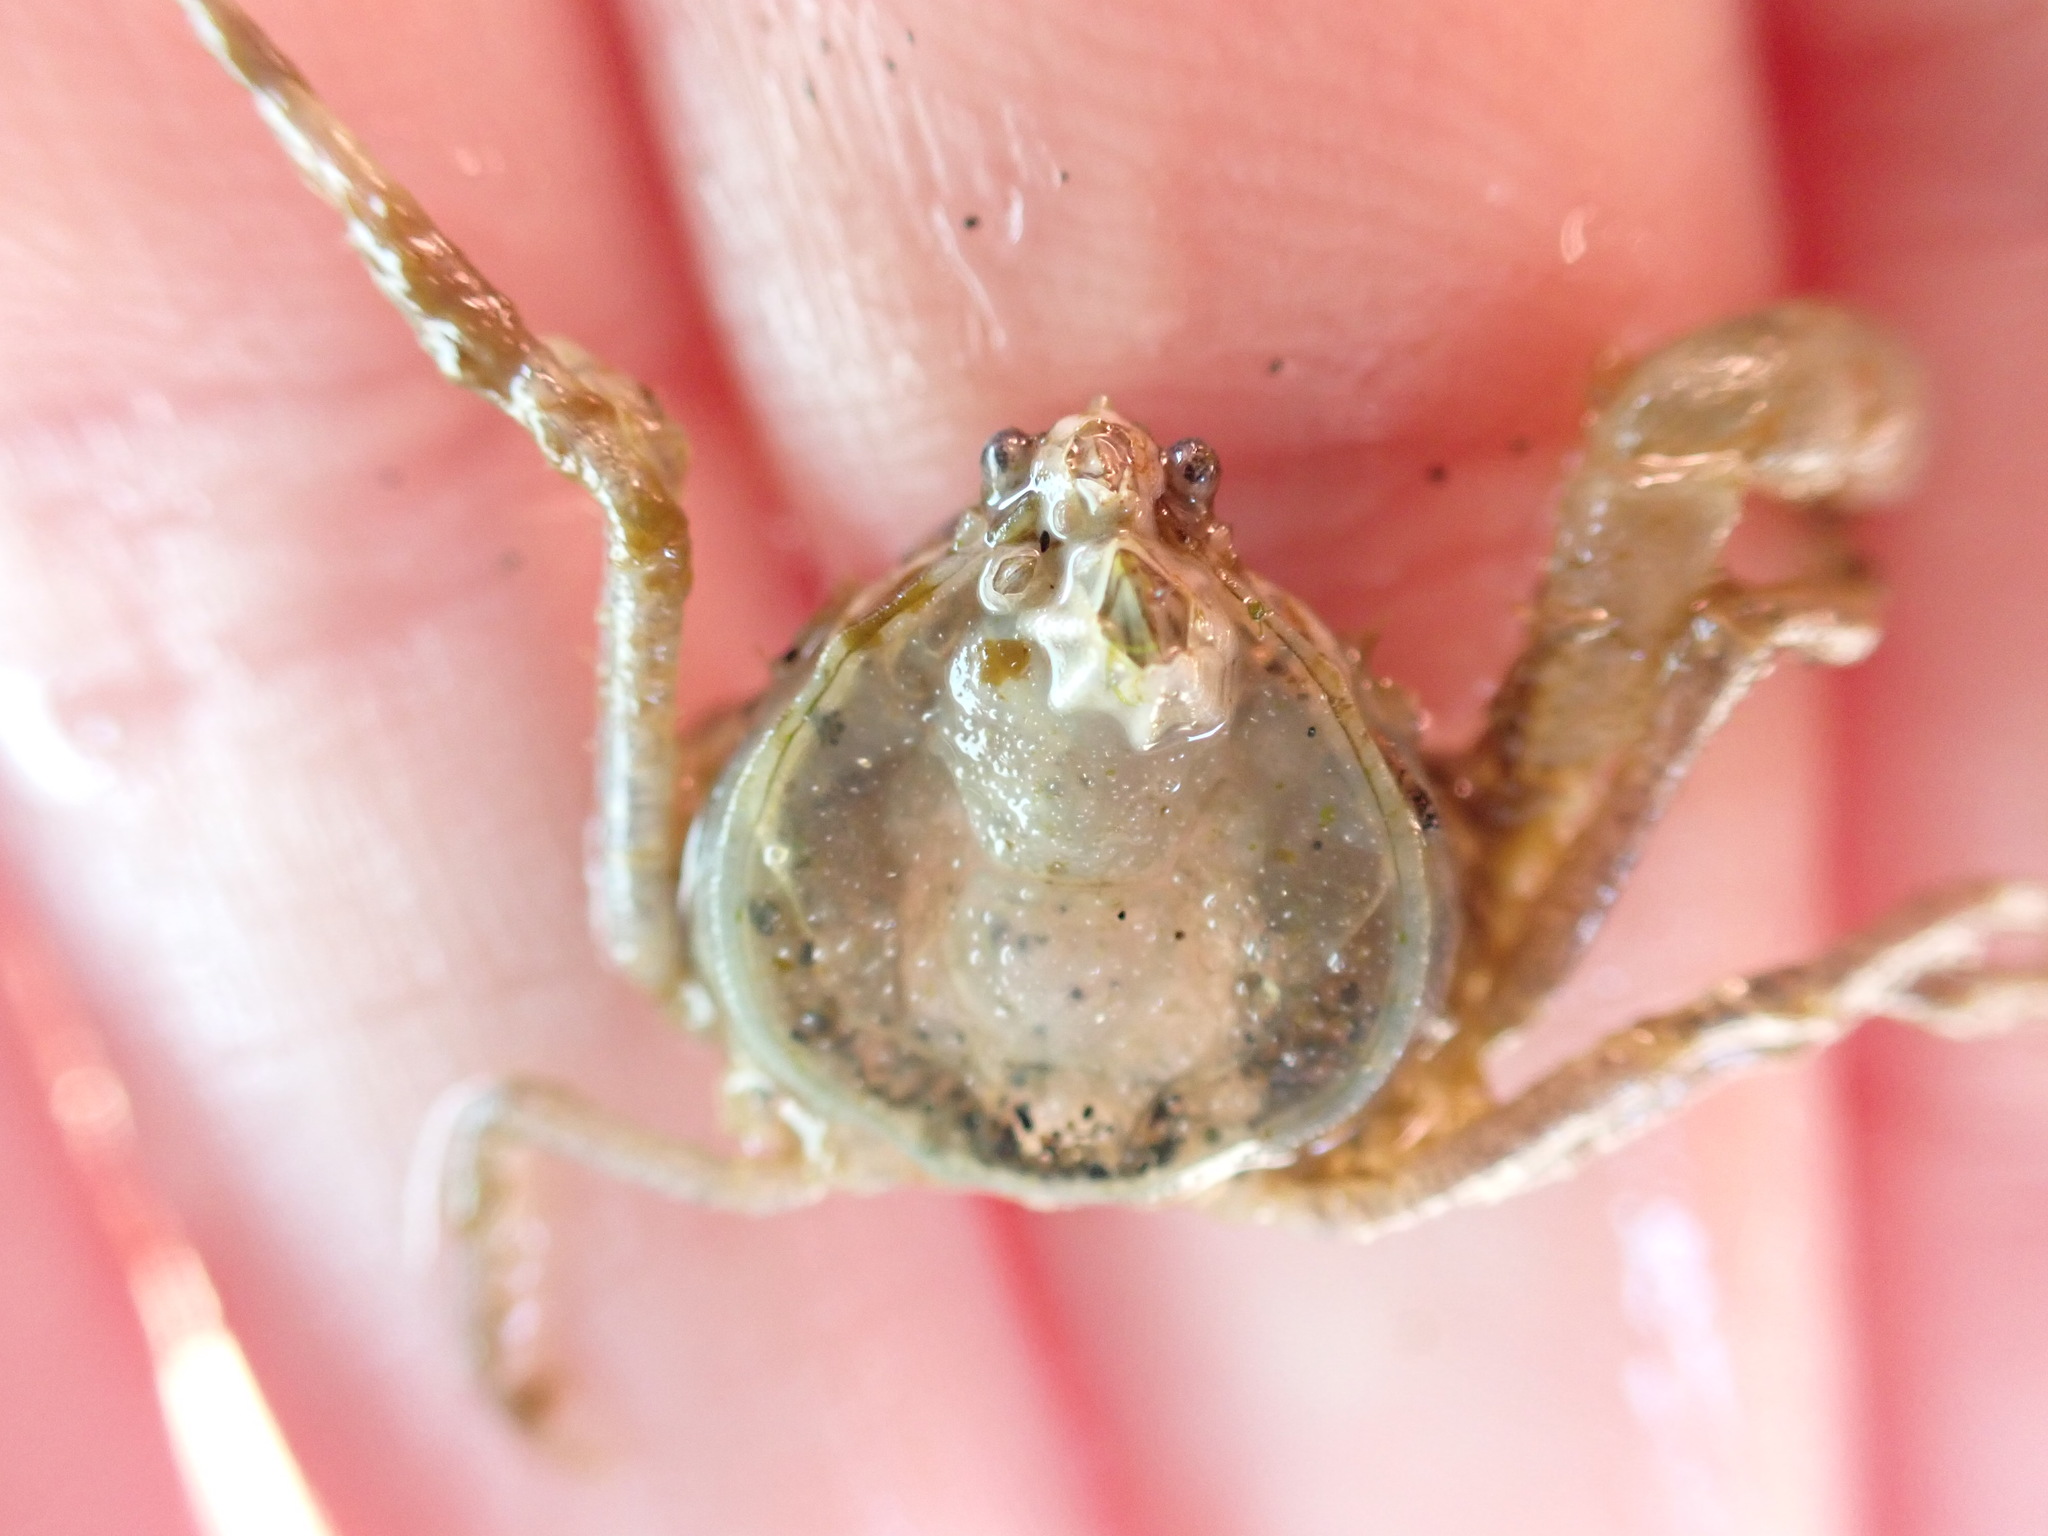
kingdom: Animalia
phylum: Arthropoda
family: Elminiidae
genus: Austrominius
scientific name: Austrominius modestus
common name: Australasian barnacle
